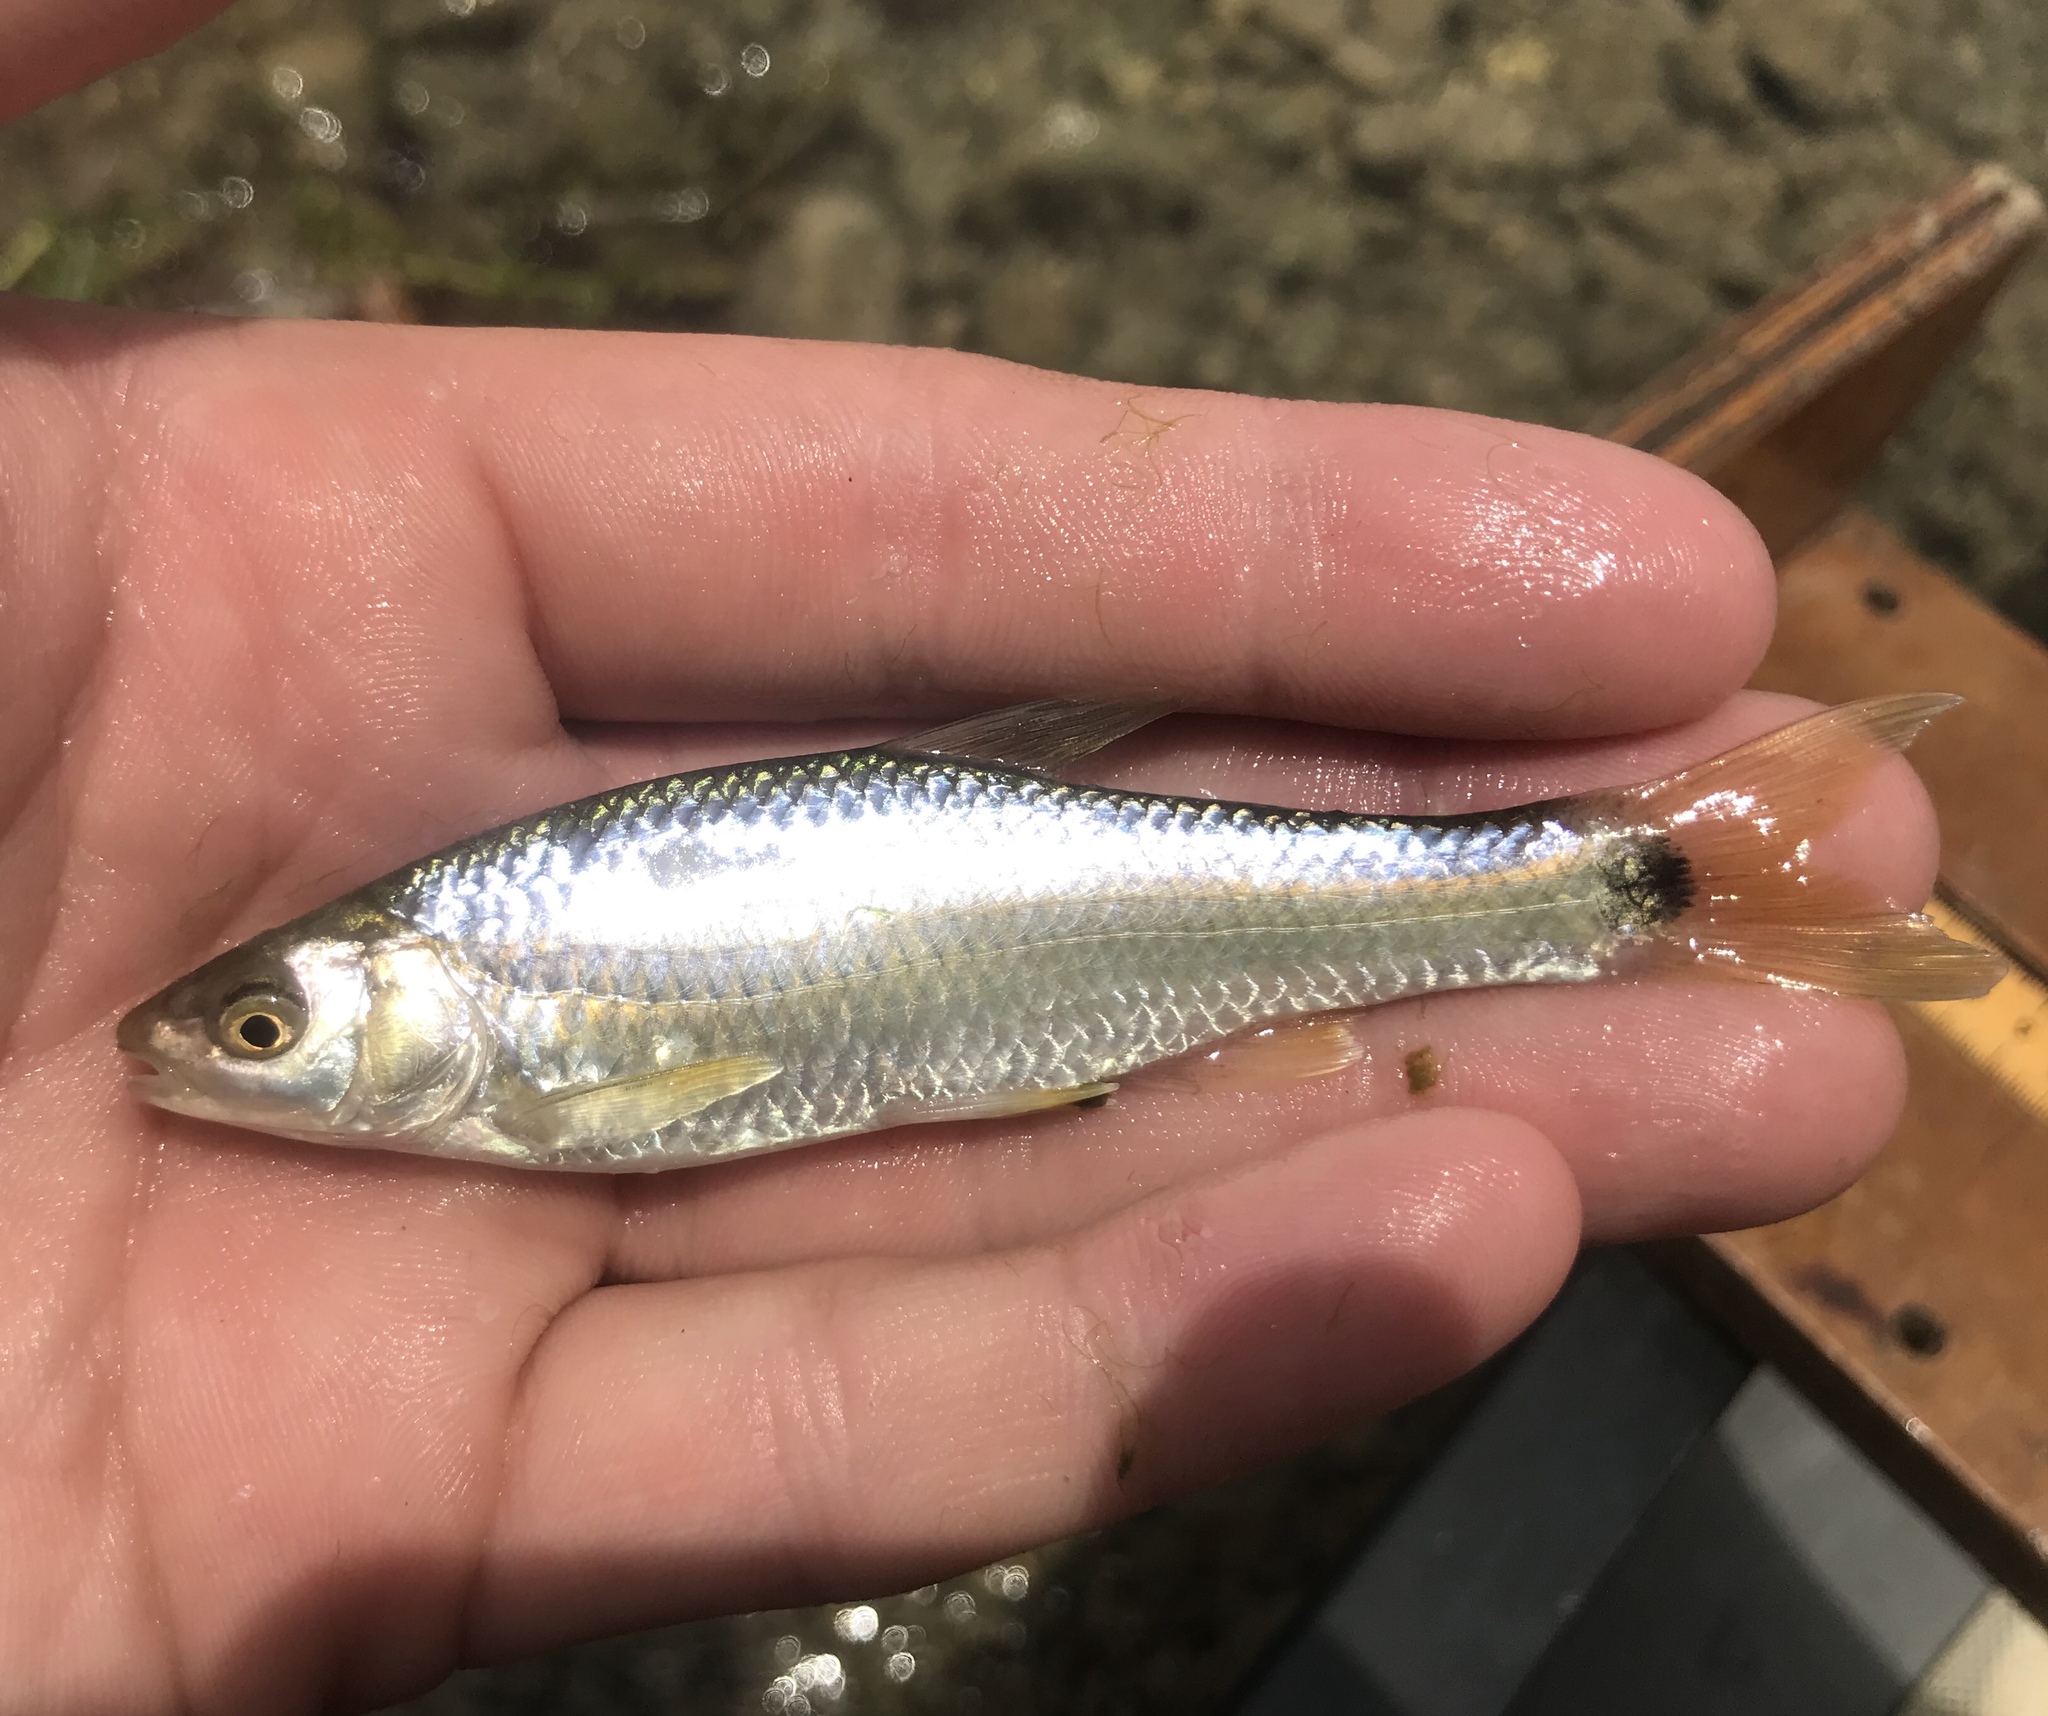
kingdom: Animalia
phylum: Chordata
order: Cypriniformes
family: Cyprinidae
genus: Cyprinella
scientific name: Cyprinella venusta
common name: Blacktail shiner
